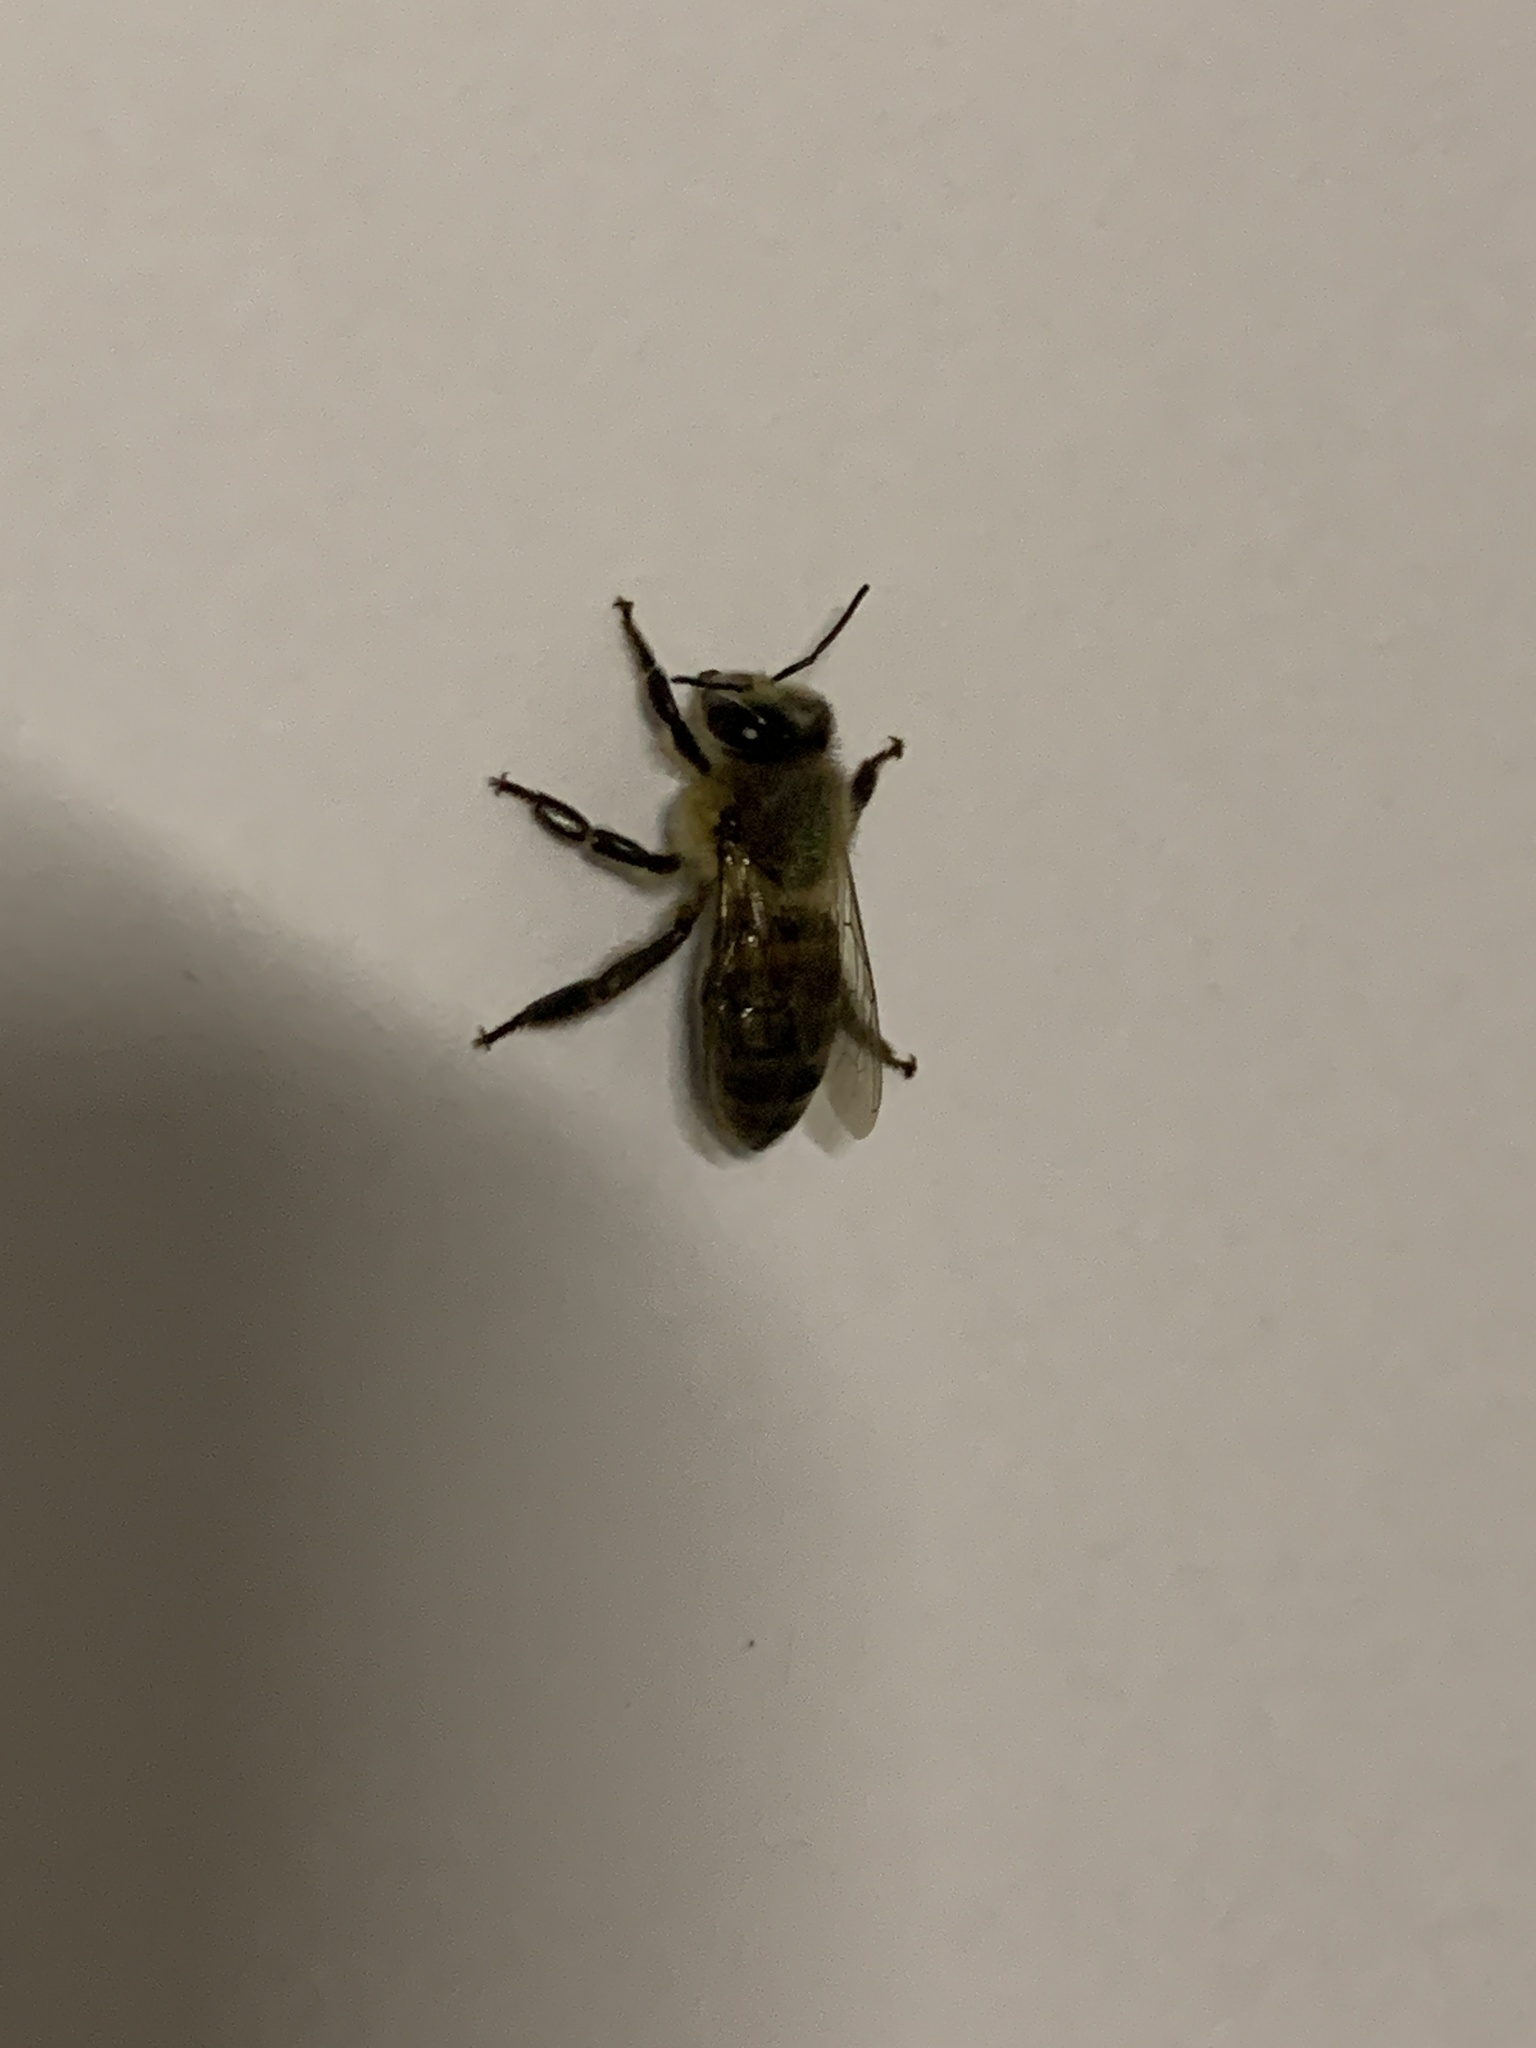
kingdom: Animalia
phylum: Arthropoda
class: Insecta
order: Hymenoptera
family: Apidae
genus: Apis
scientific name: Apis mellifera
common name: Honey bee
